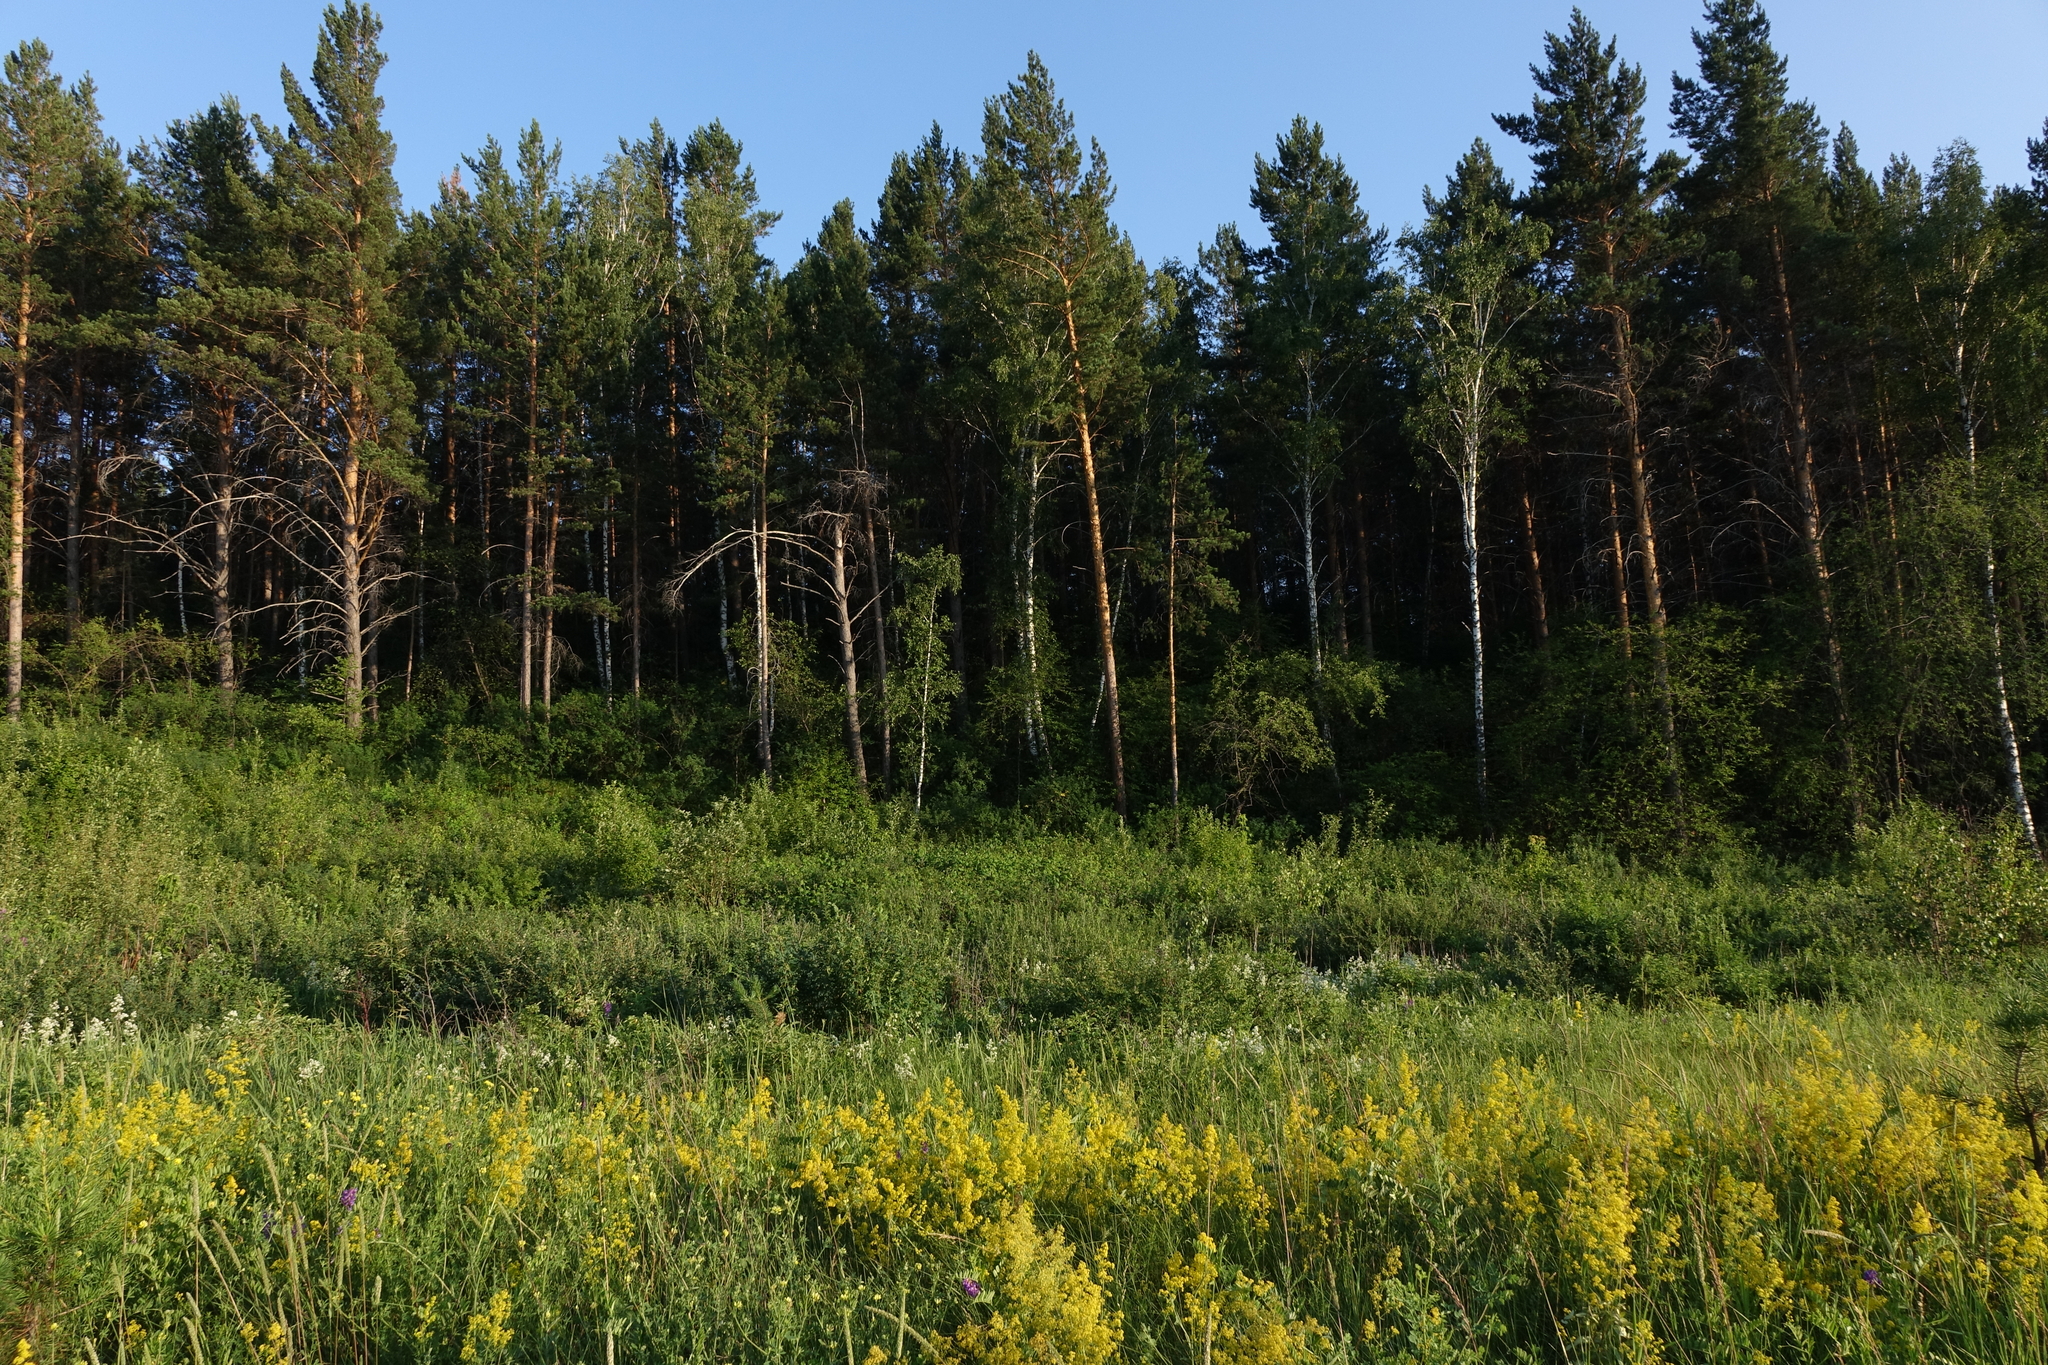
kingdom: Plantae
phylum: Tracheophyta
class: Pinopsida
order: Pinales
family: Pinaceae
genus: Pinus
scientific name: Pinus sylvestris
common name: Scots pine
